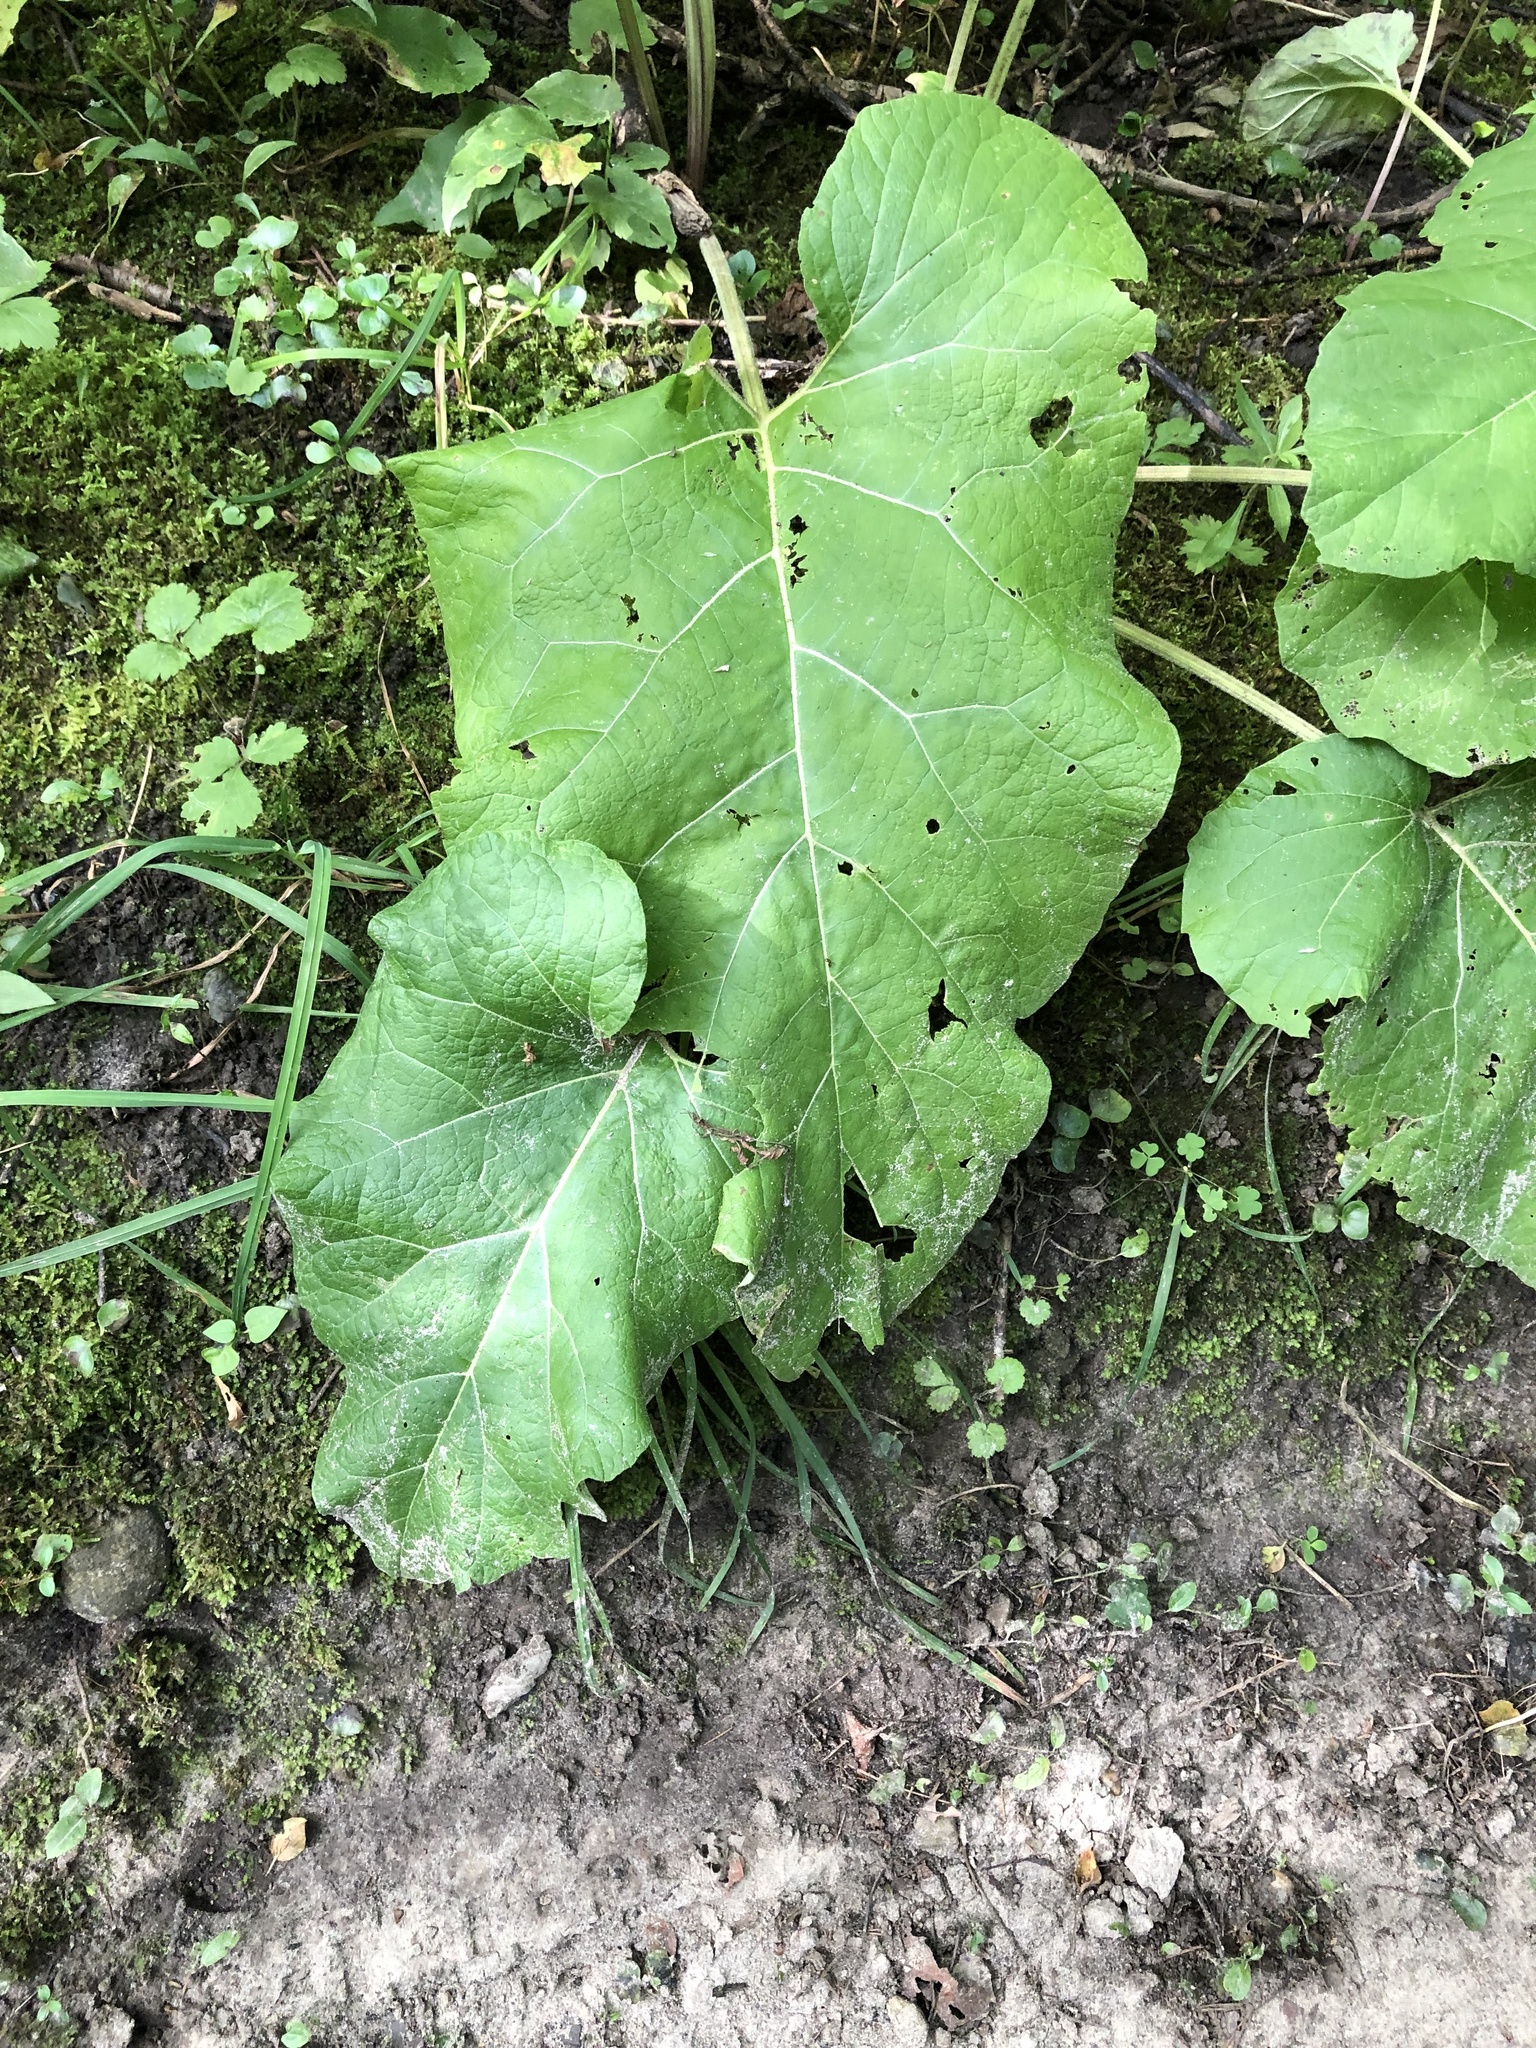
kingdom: Plantae
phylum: Tracheophyta
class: Magnoliopsida
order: Asterales
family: Asteraceae
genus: Arctium
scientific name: Arctium minus
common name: Lesser burdock
